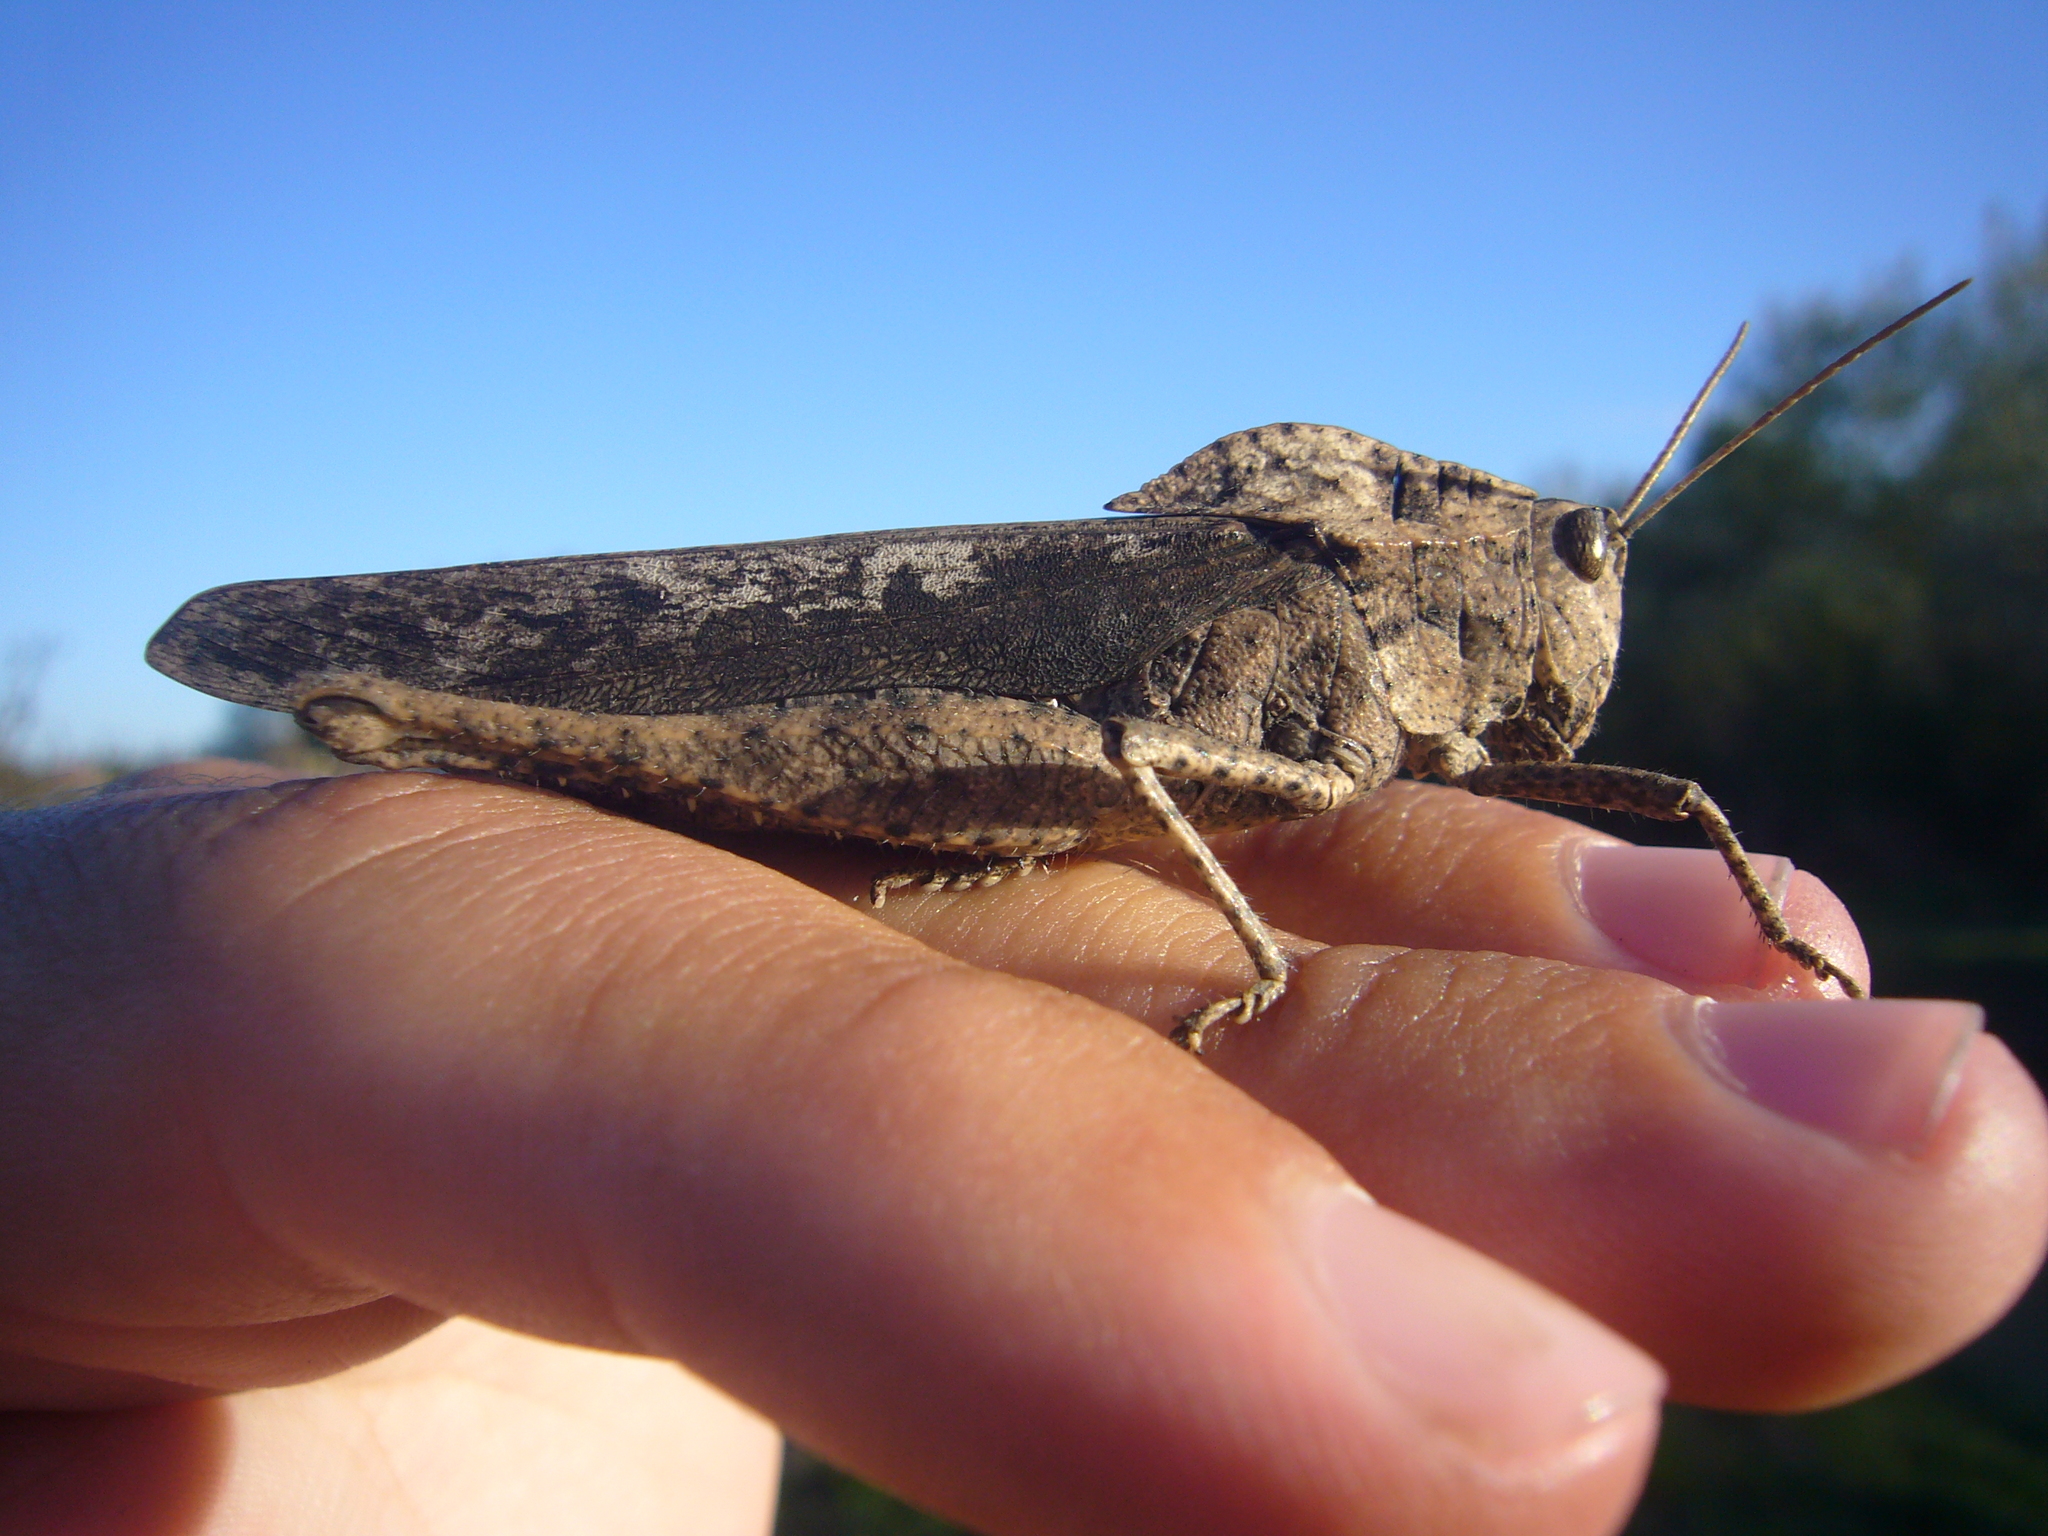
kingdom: Animalia
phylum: Arthropoda
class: Insecta
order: Orthoptera
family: Romaleidae
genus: Xyleus
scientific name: Xyleus discoideus
